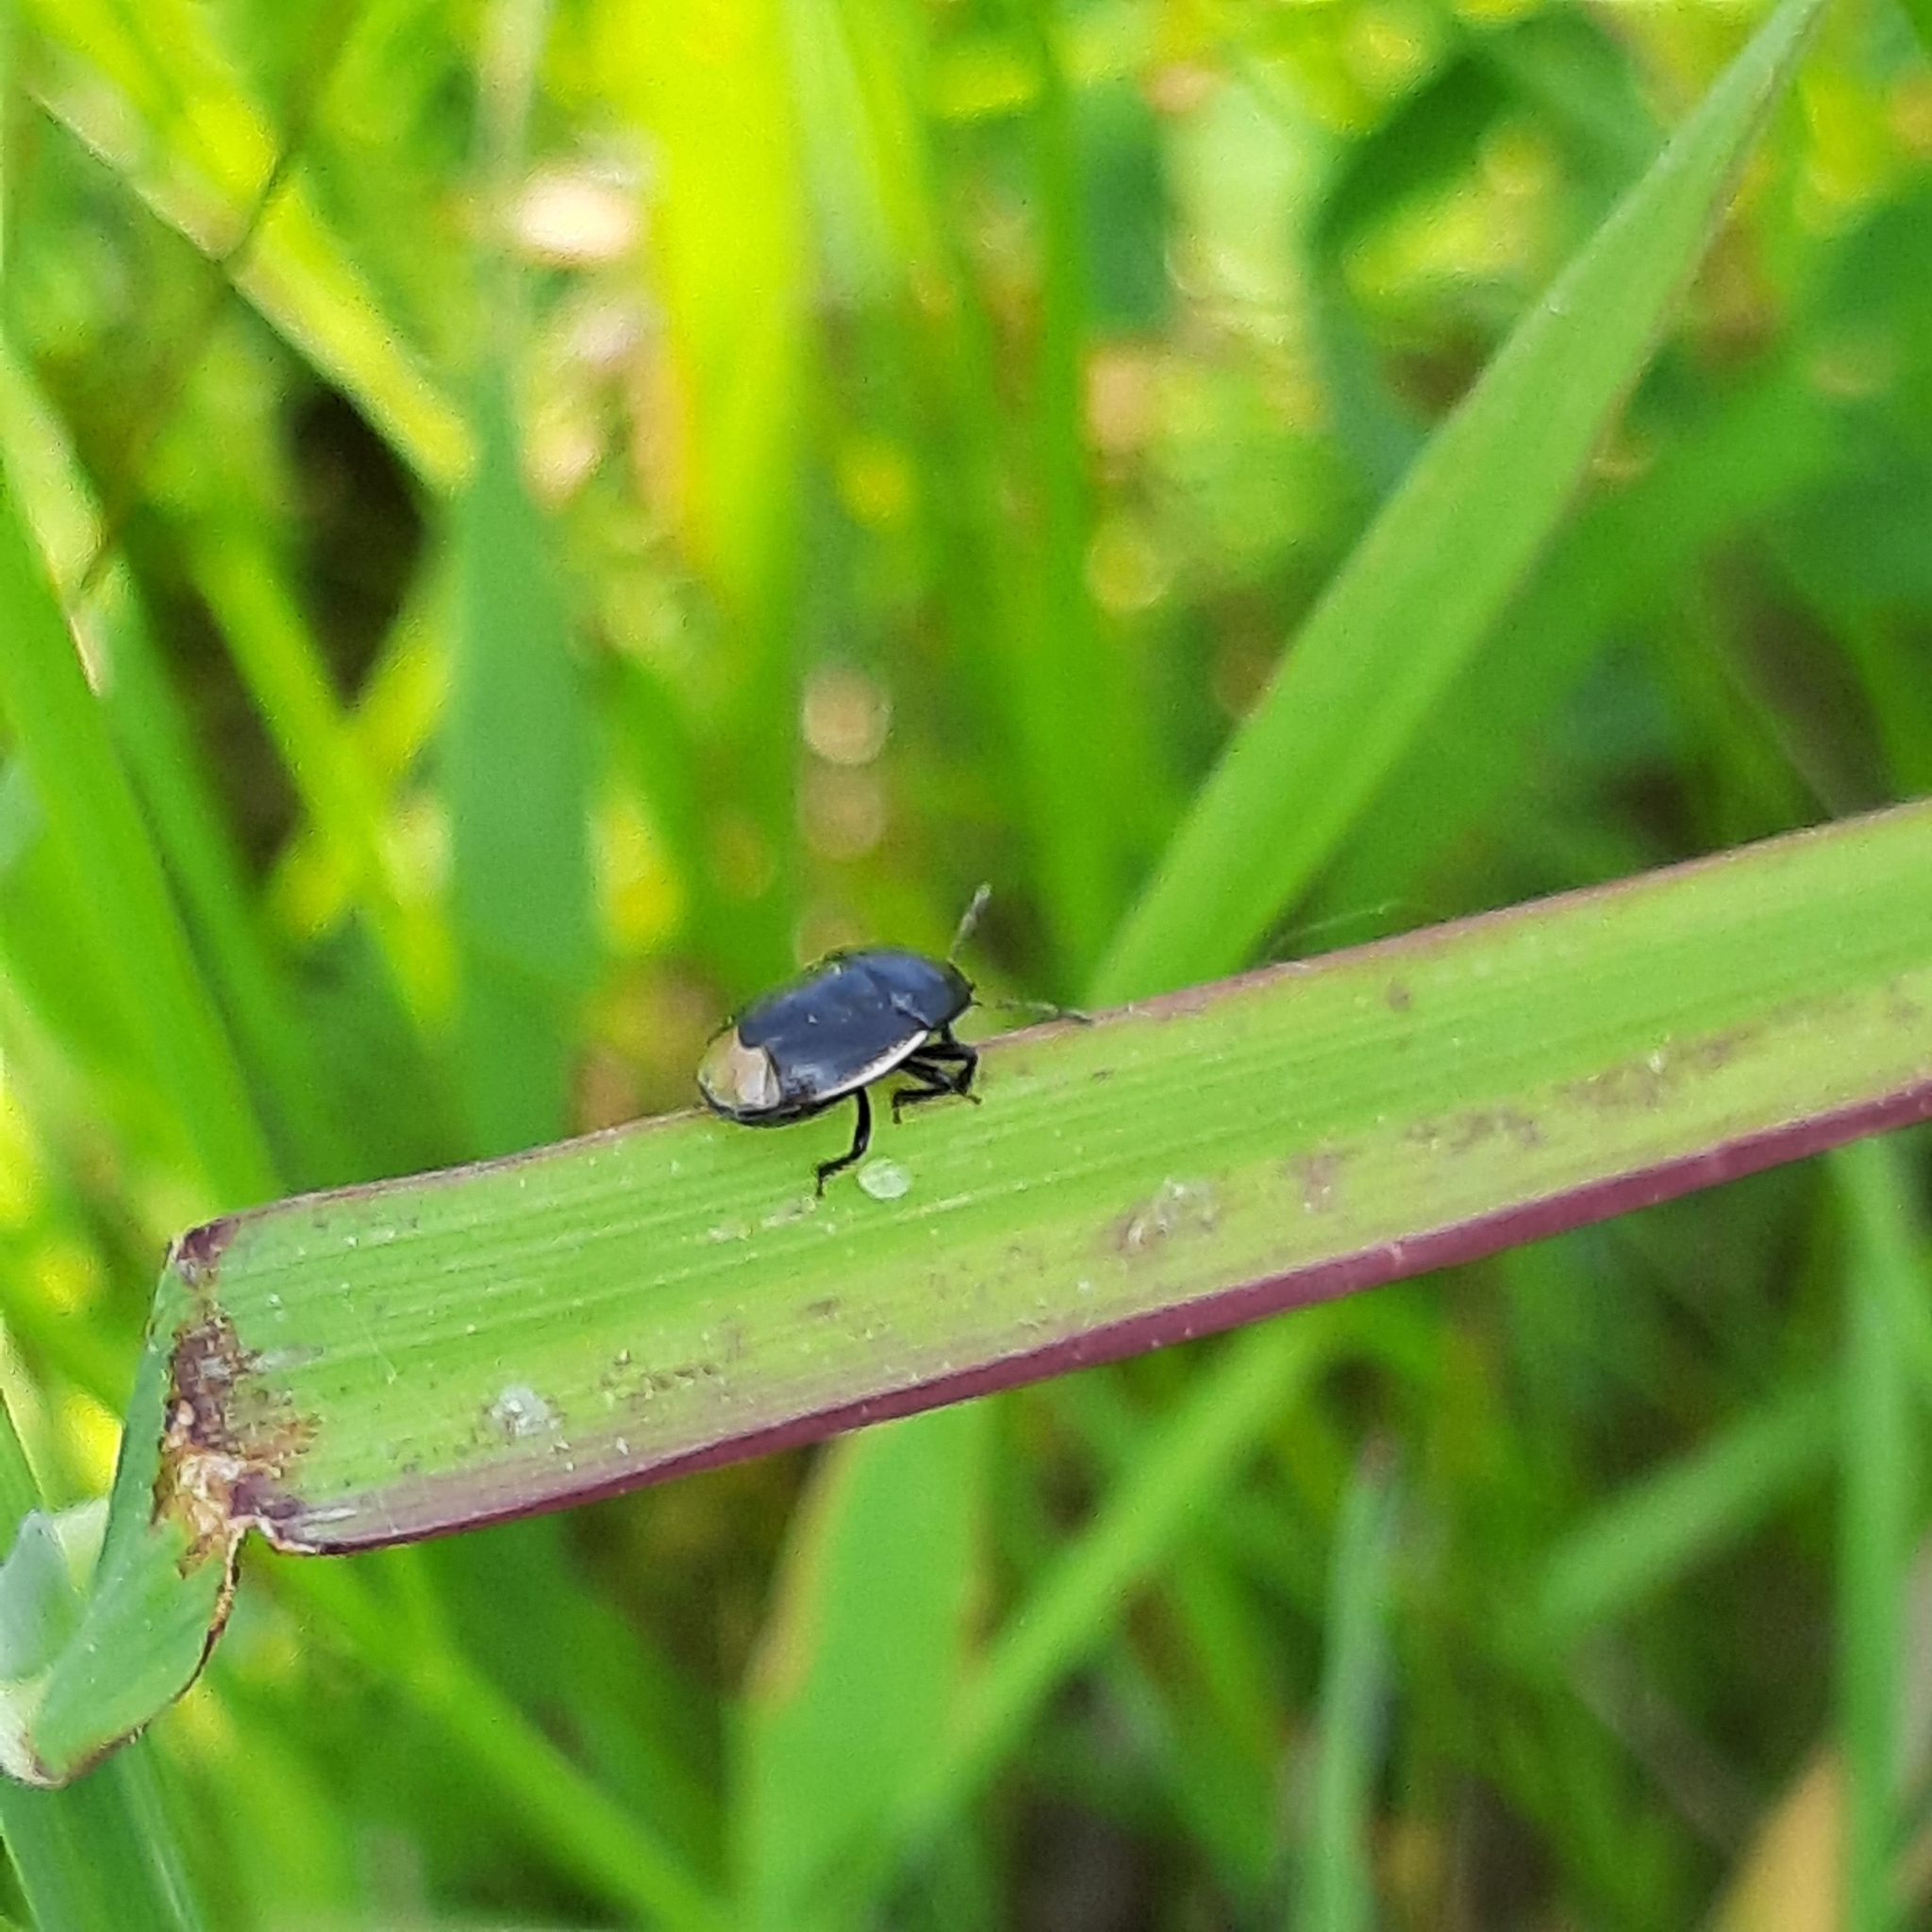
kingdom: Animalia
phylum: Arthropoda
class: Insecta
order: Hemiptera
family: Cydnidae
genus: Legnotus
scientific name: Legnotus limbosus
